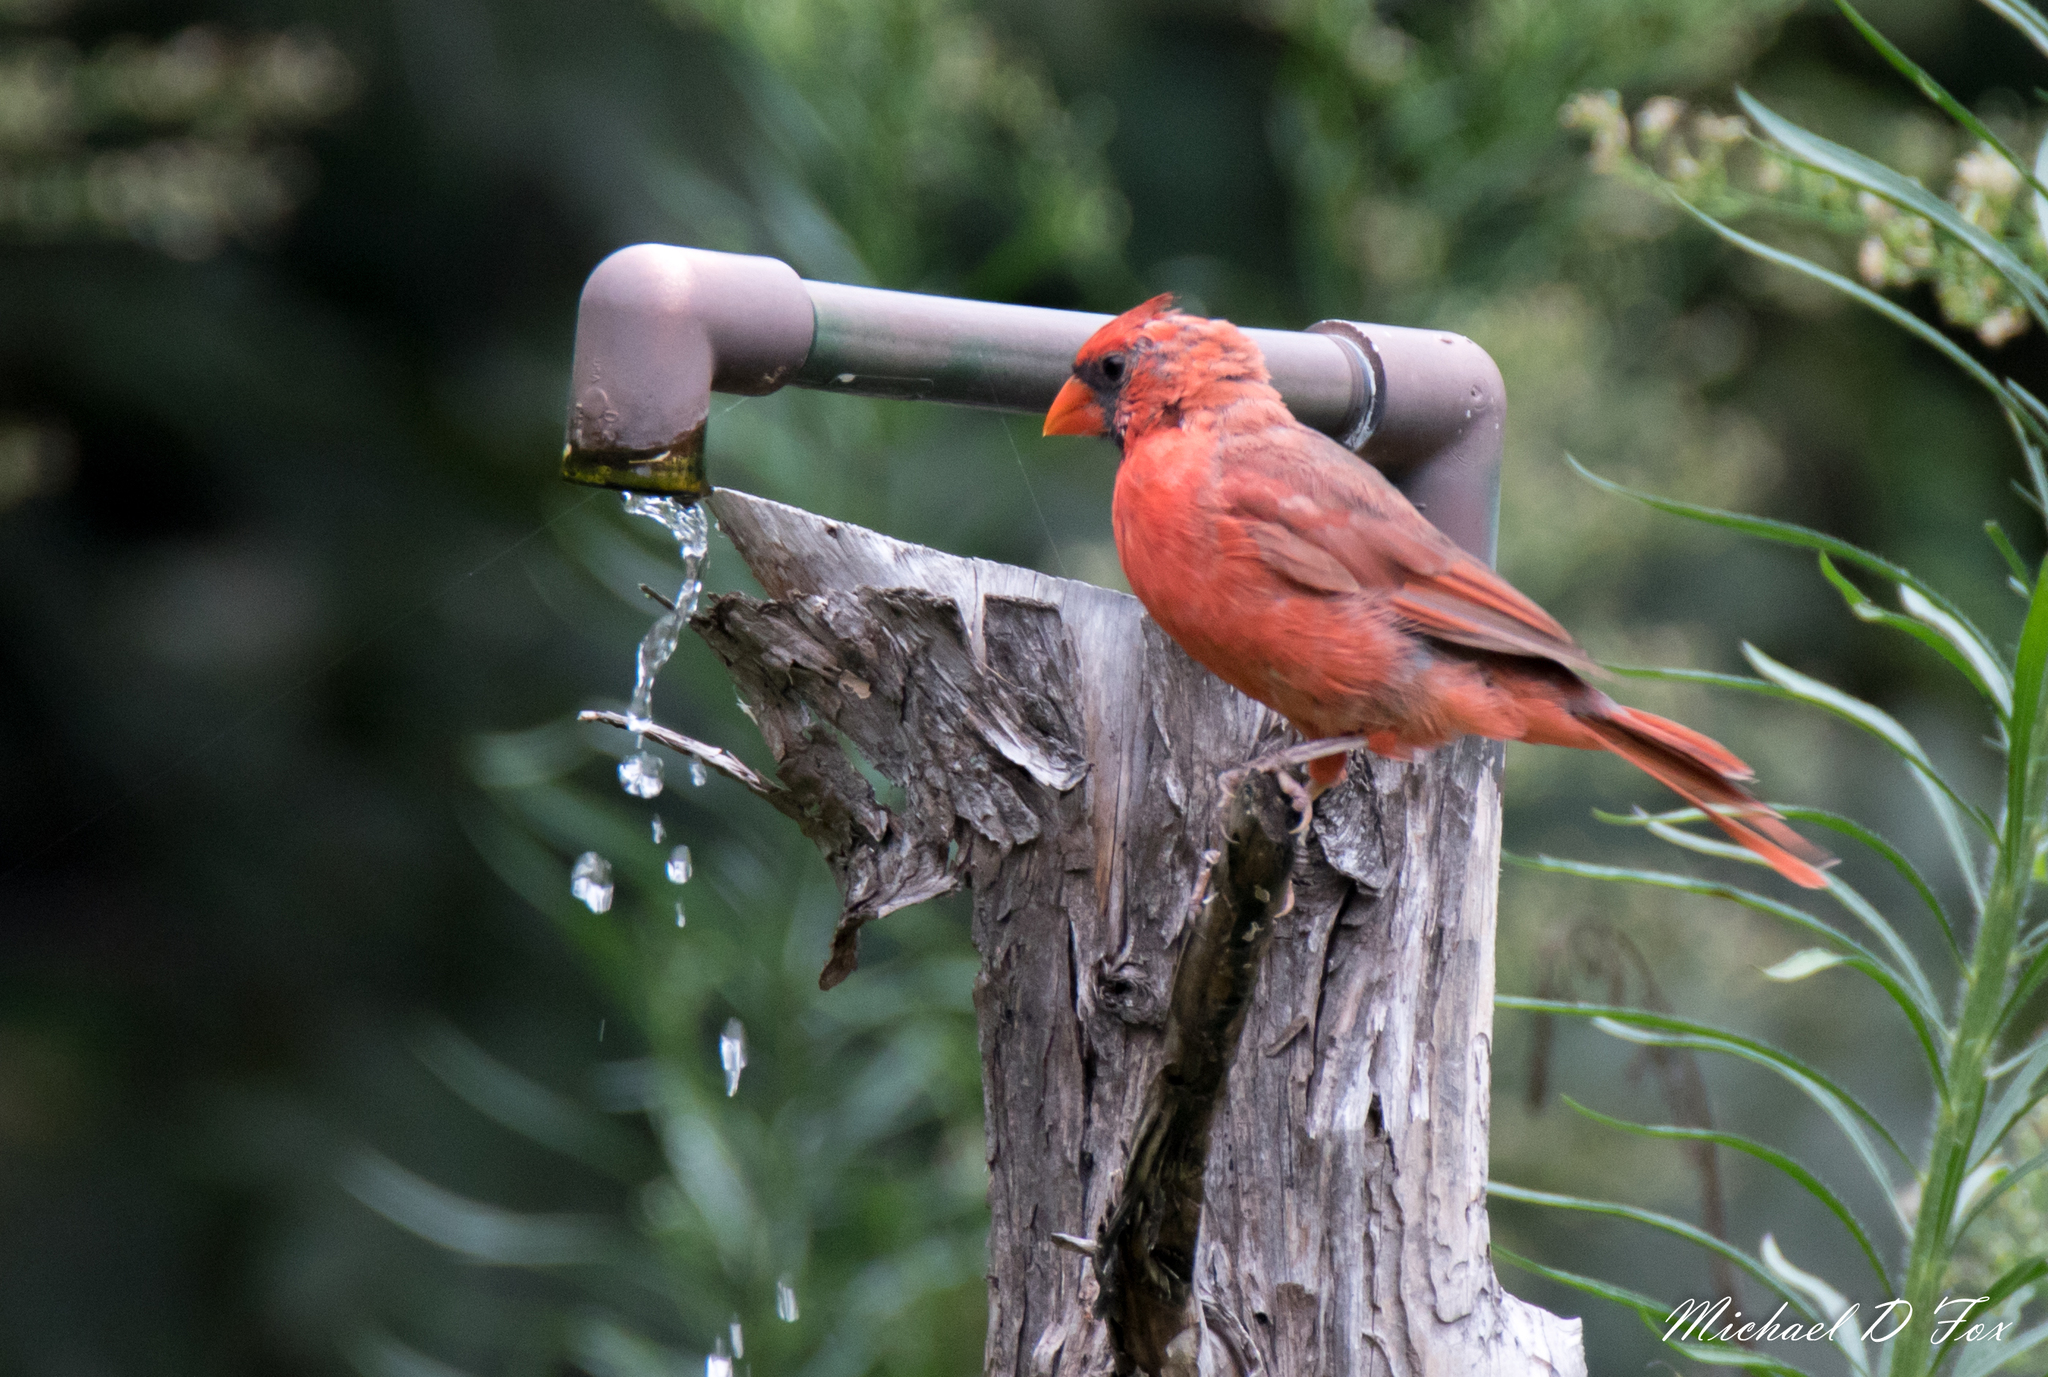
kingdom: Animalia
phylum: Chordata
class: Aves
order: Passeriformes
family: Cardinalidae
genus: Cardinalis
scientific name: Cardinalis cardinalis
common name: Northern cardinal
